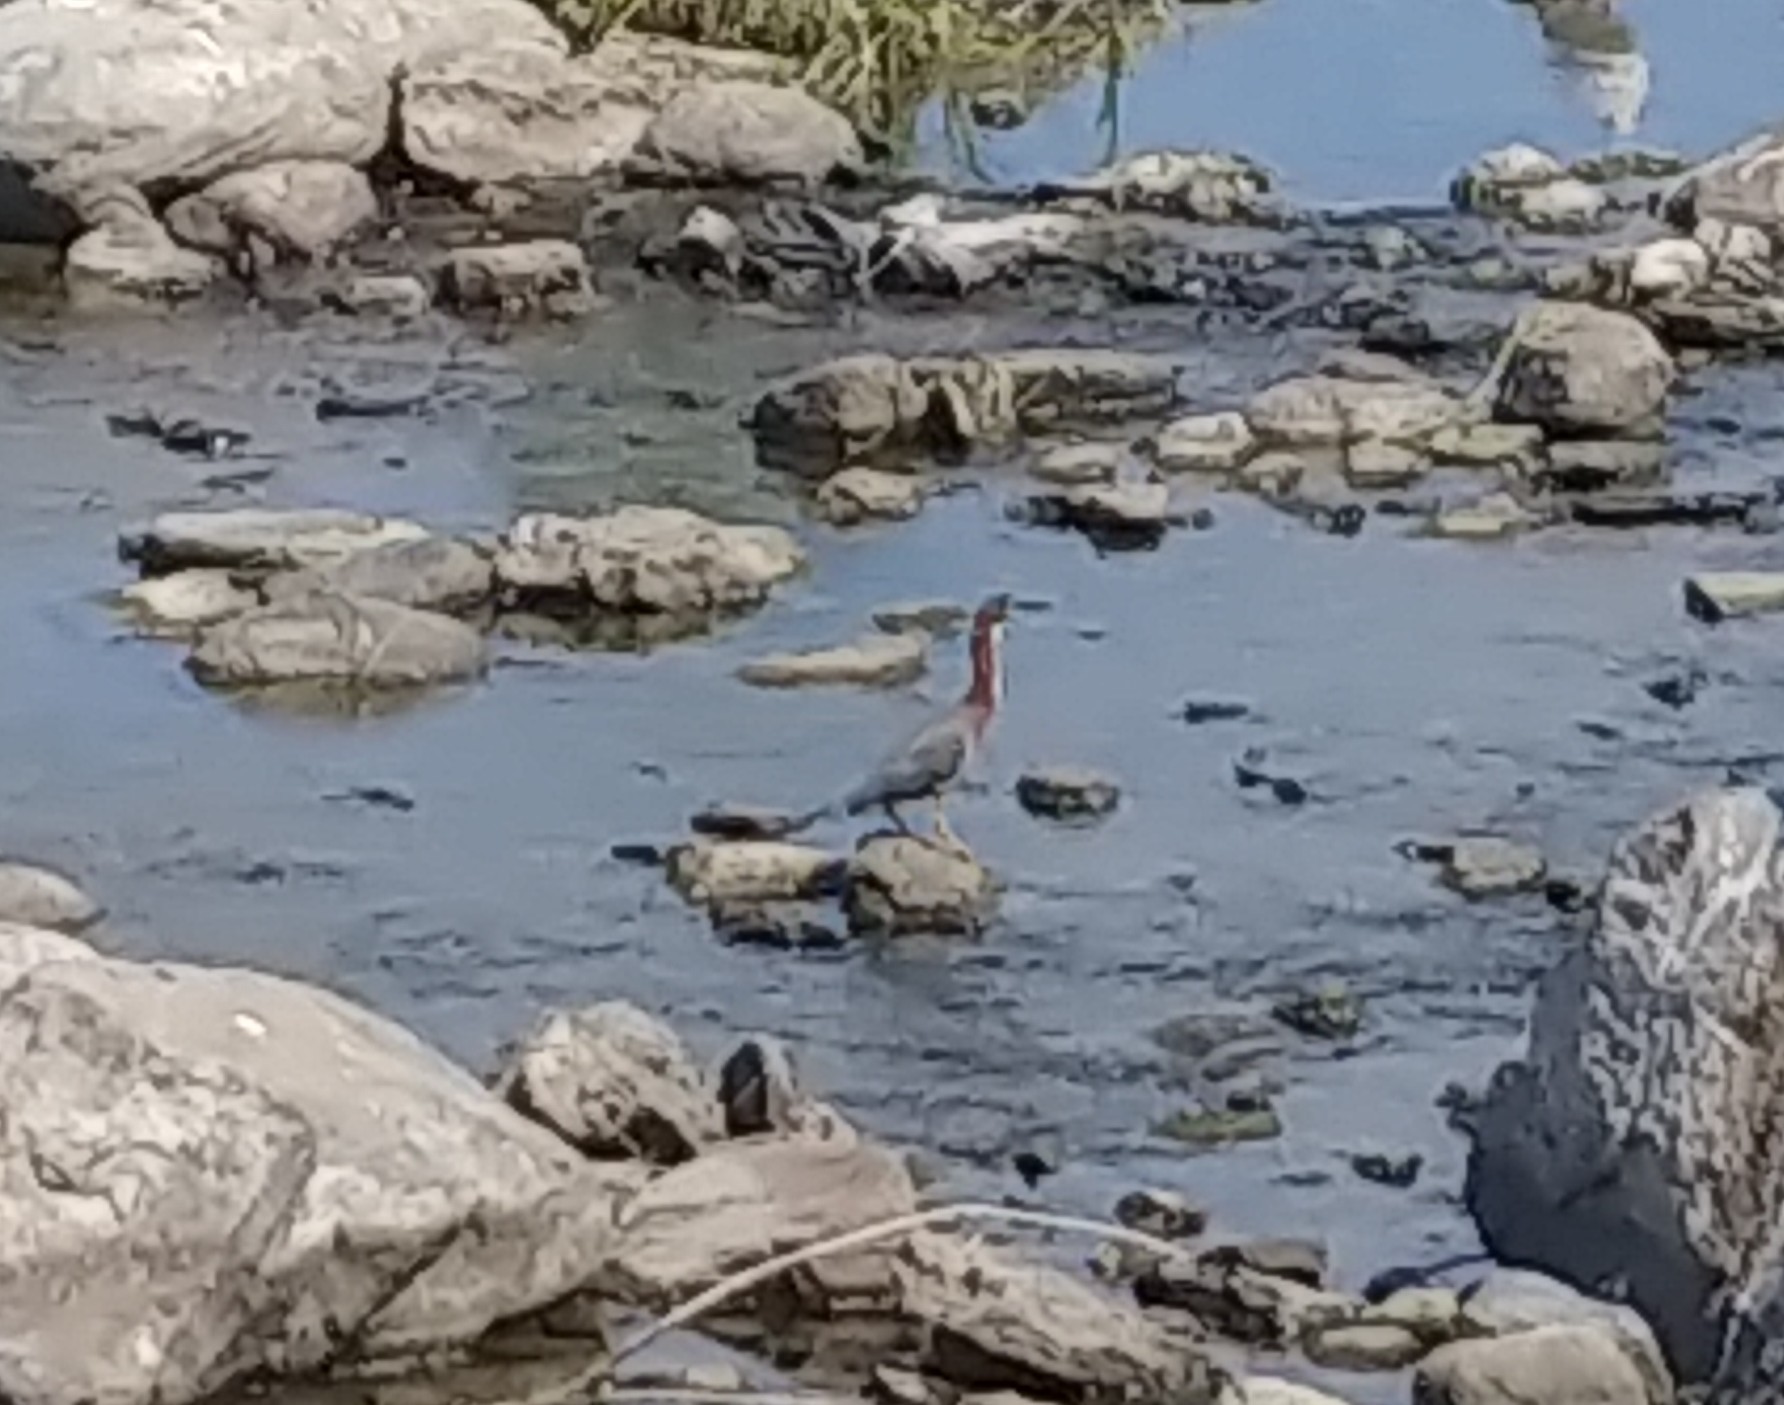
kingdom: Animalia
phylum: Chordata
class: Aves
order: Pelecaniformes
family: Ardeidae
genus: Butorides
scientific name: Butorides virescens
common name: Green heron
